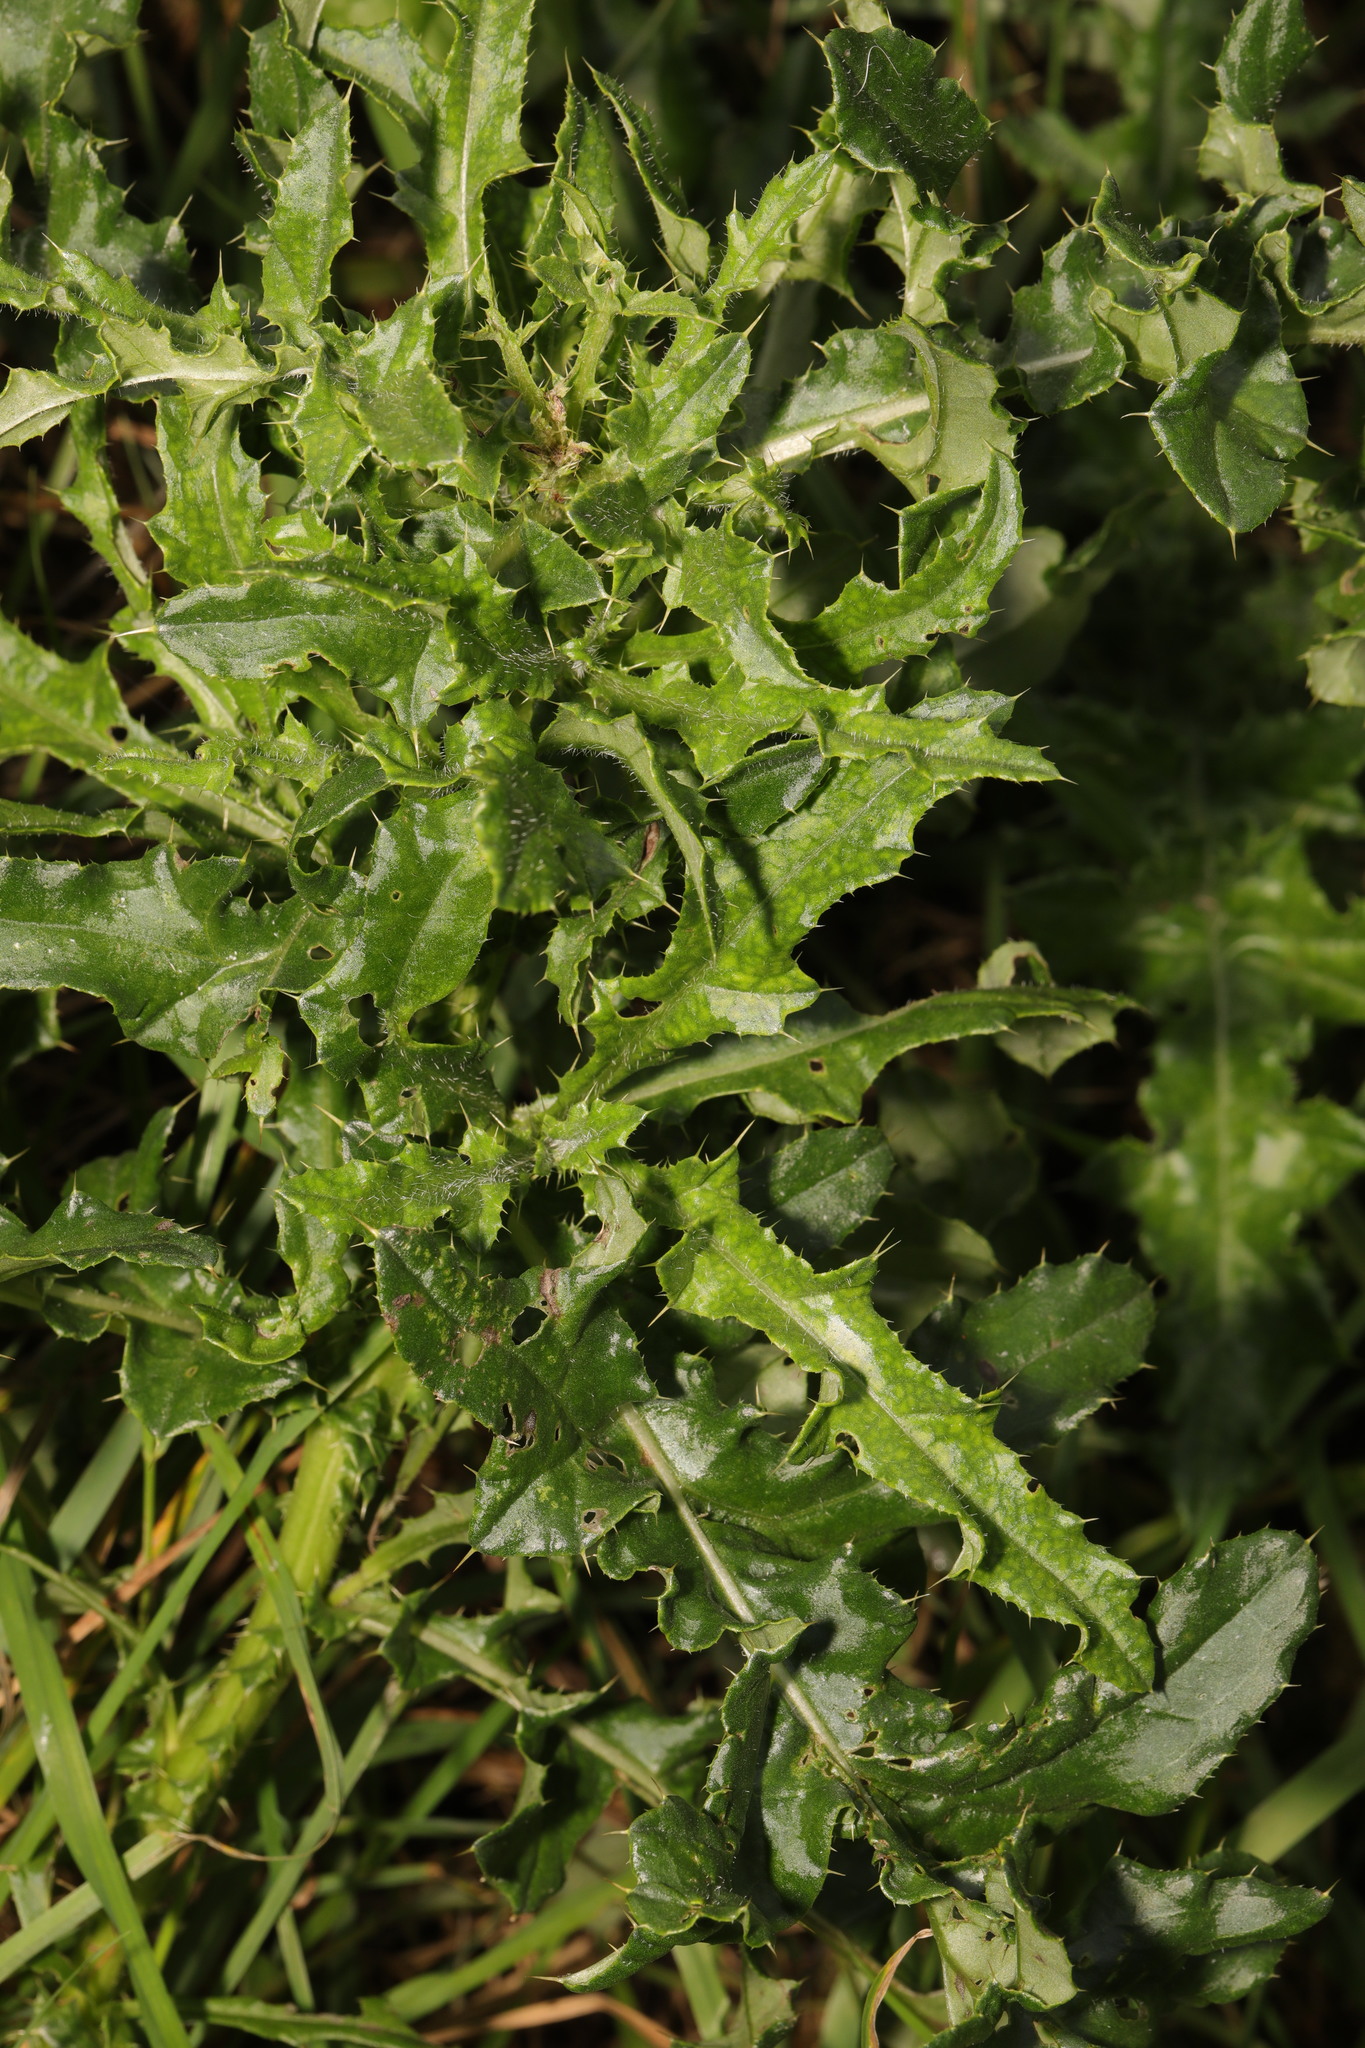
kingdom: Plantae
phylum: Tracheophyta
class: Magnoliopsida
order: Asterales
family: Asteraceae
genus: Cirsium
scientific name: Cirsium arvense
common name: Creeping thistle
